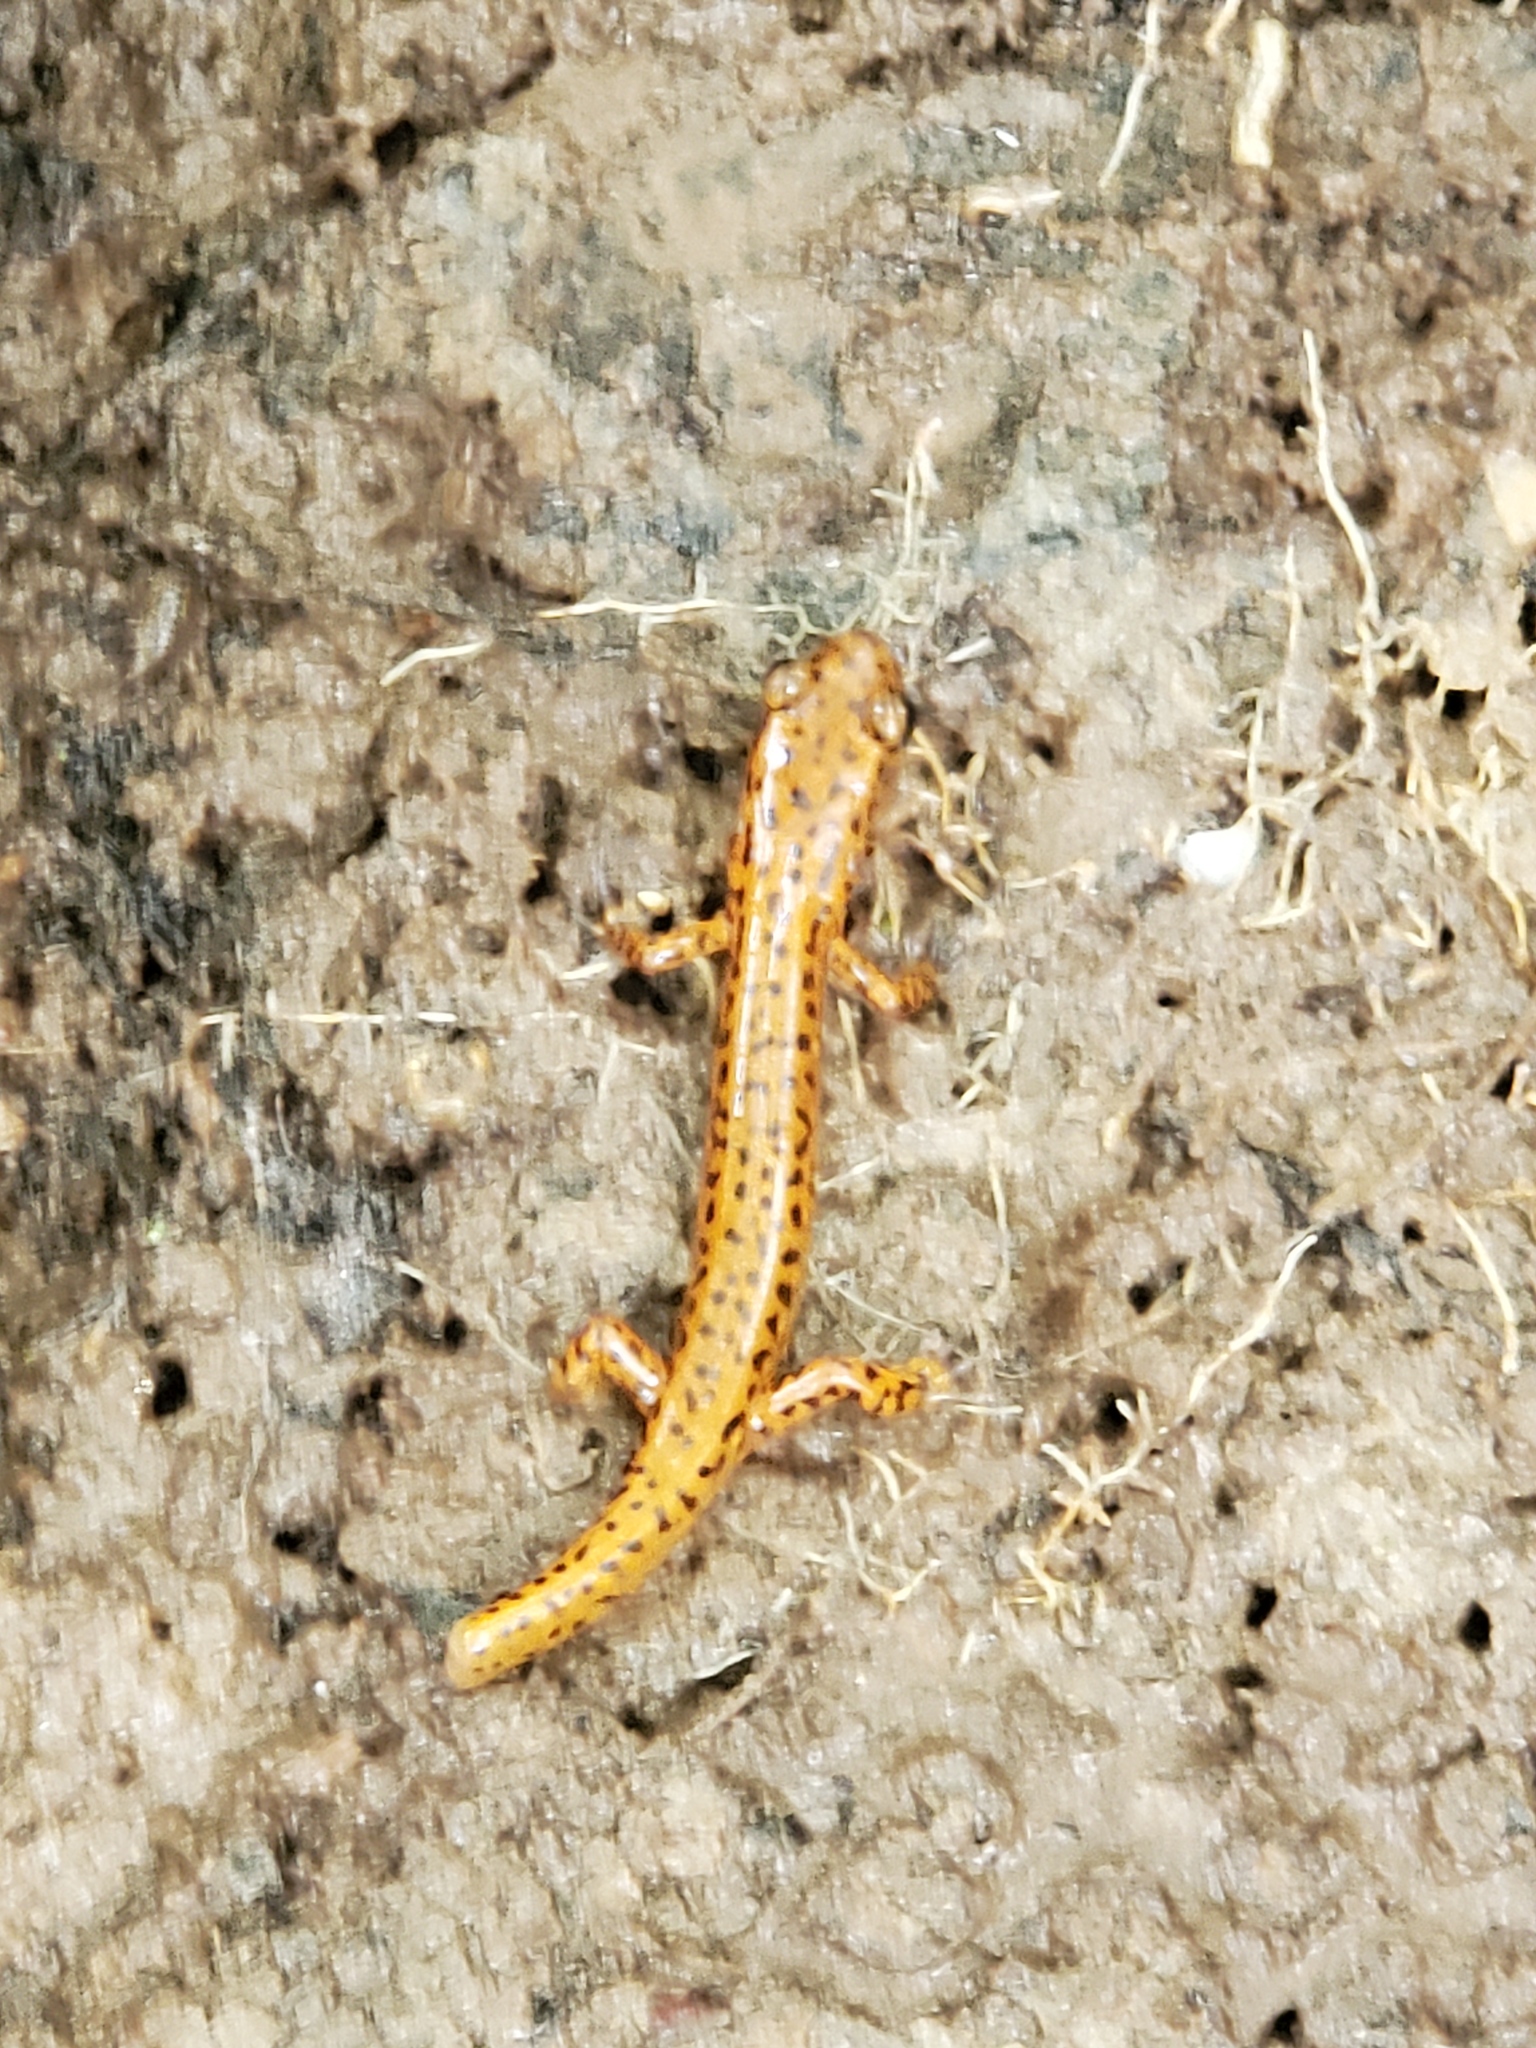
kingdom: Animalia
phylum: Chordata
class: Amphibia
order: Caudata
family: Plethodontidae
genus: Eurycea
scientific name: Eurycea longicauda
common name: Long-tailed salamander
